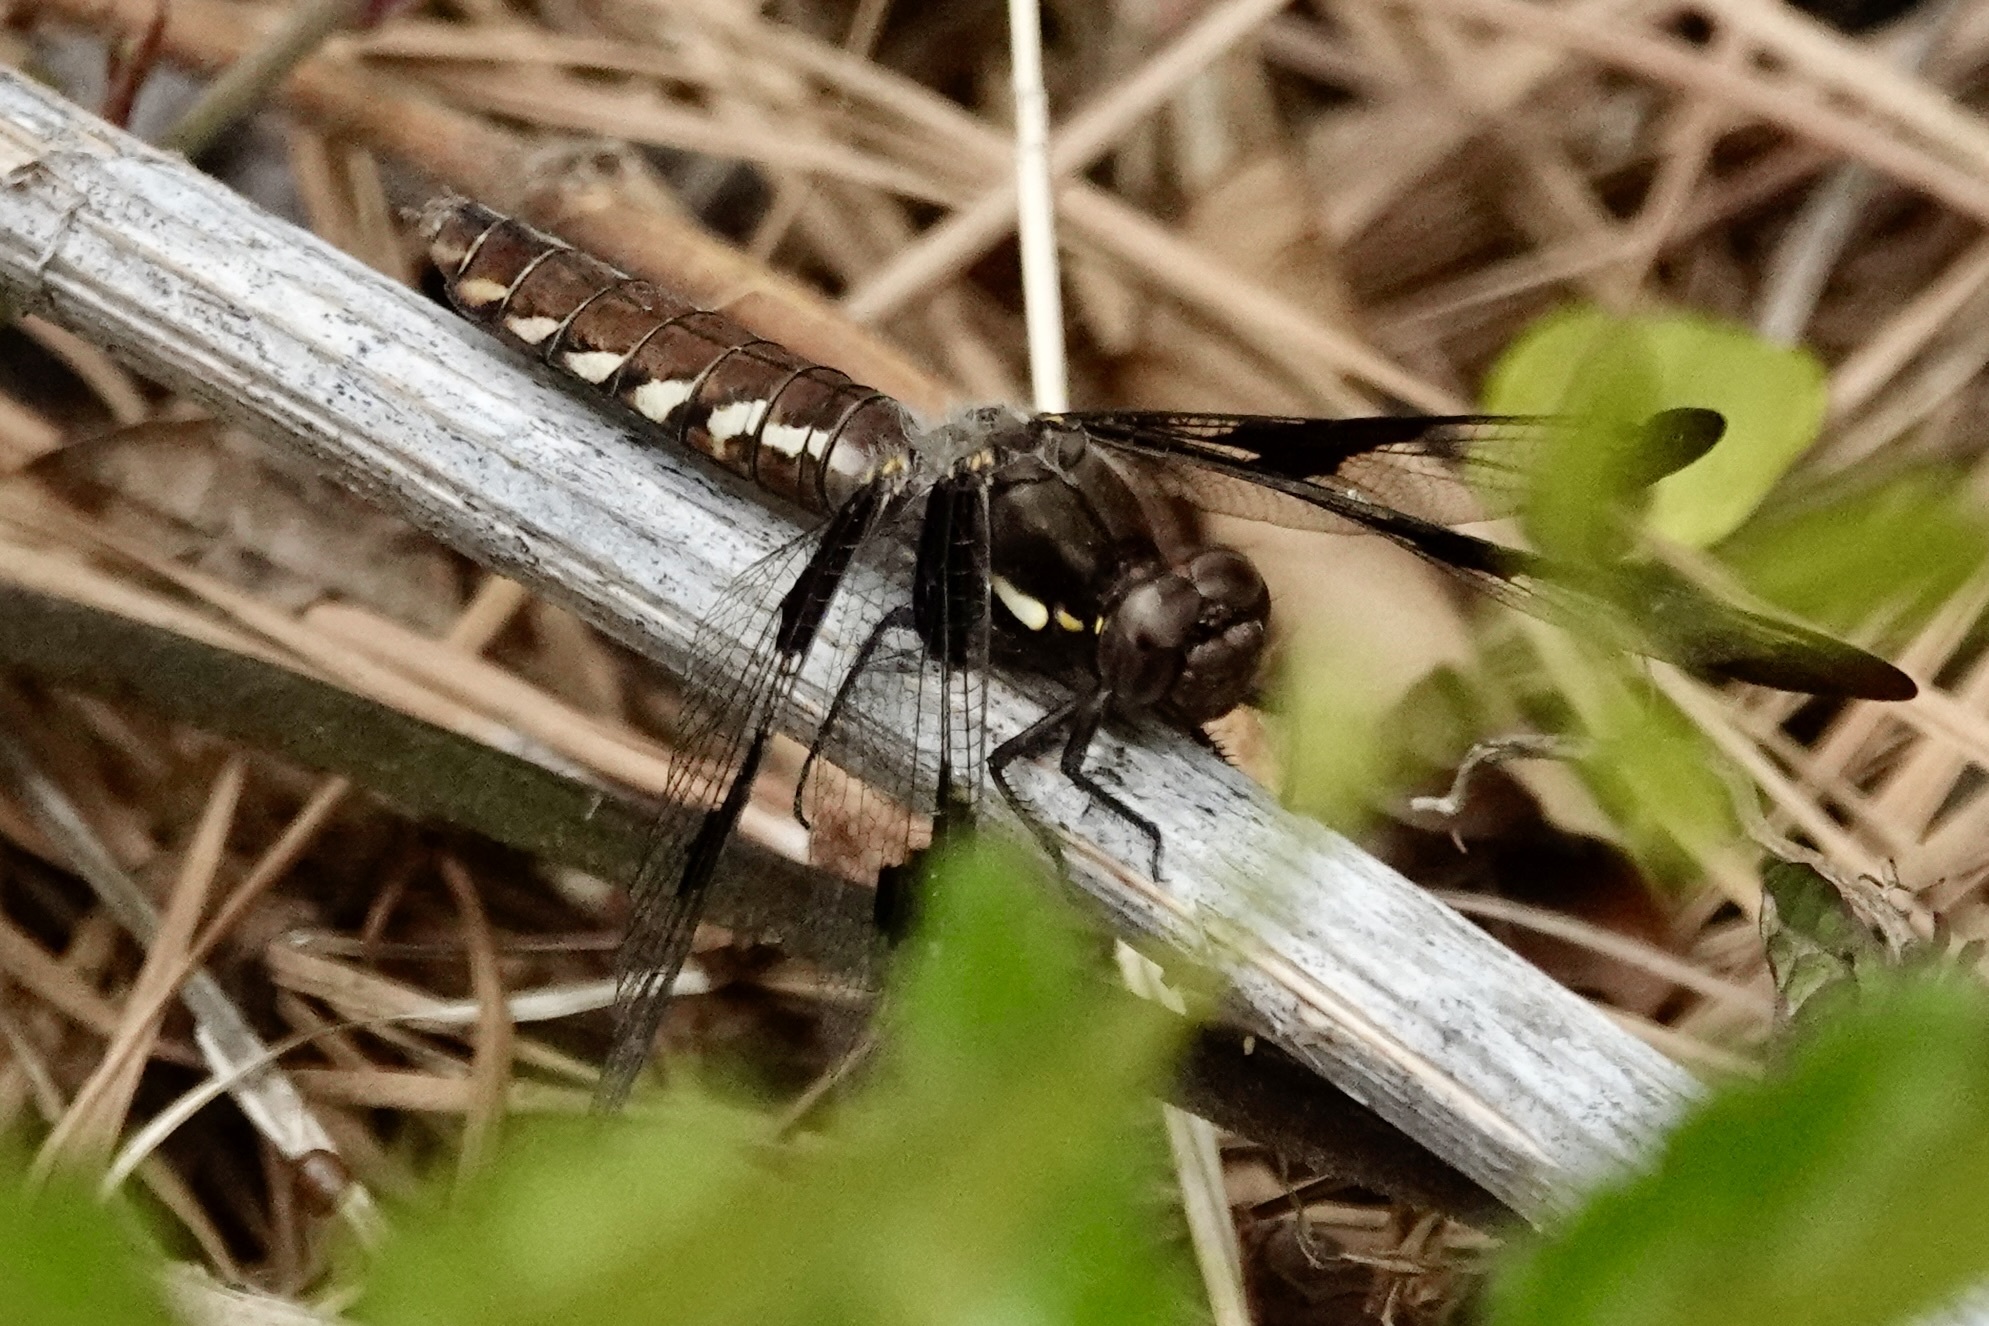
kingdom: Animalia
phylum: Arthropoda
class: Insecta
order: Odonata
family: Libellulidae
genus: Plathemis
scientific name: Plathemis lydia
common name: Common whitetail
